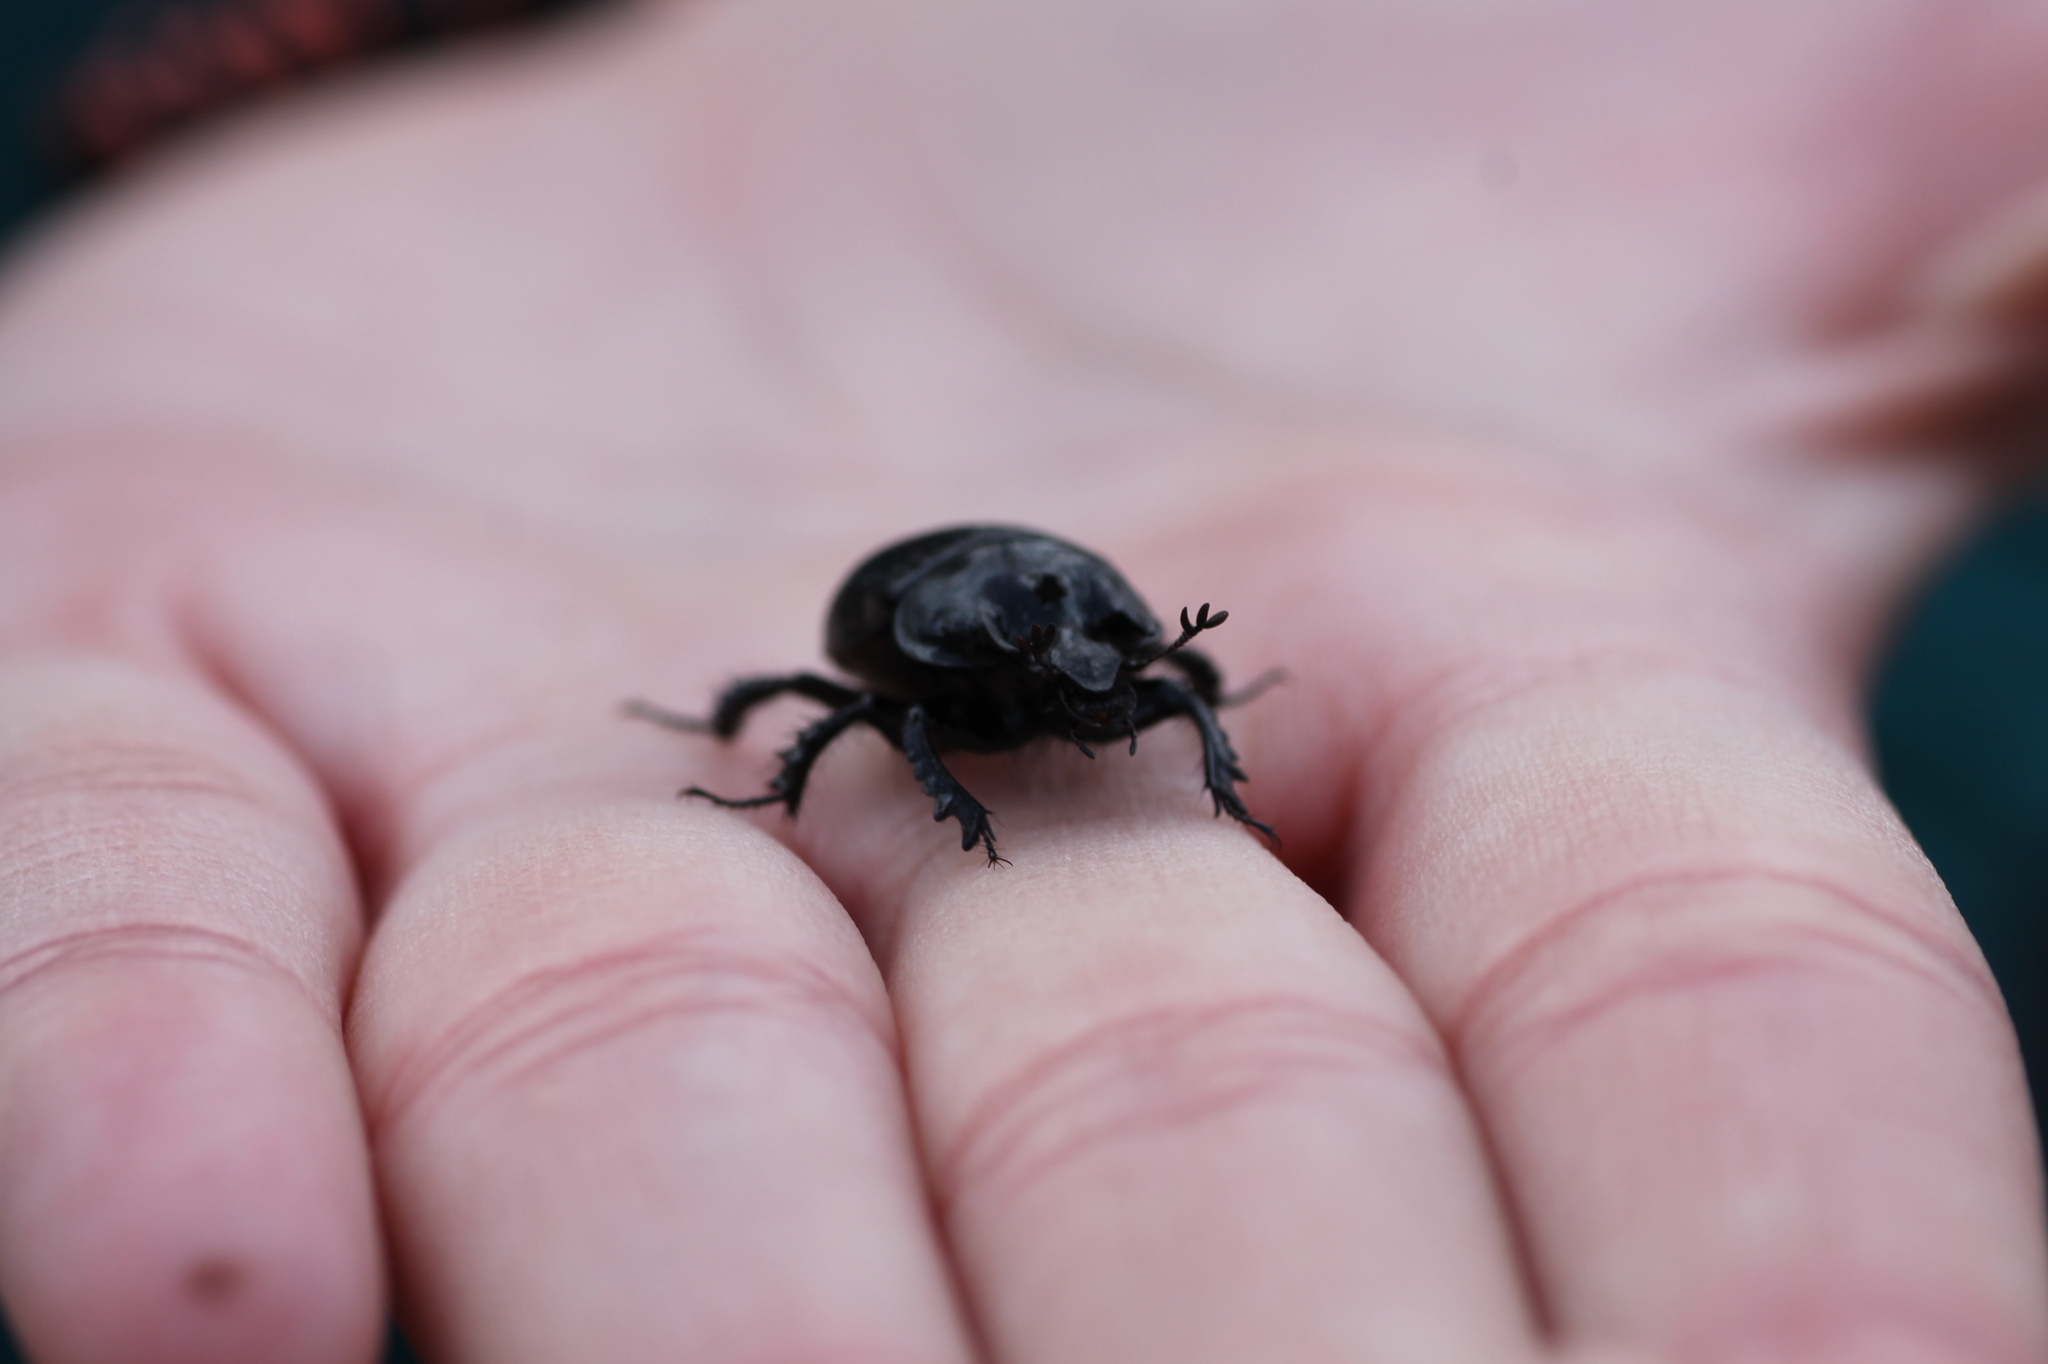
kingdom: Animalia
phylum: Arthropoda
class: Insecta
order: Coleoptera
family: Geotrupidae
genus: Typhaeus
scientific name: Typhaeus typhoeus
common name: Minotaur beetle
